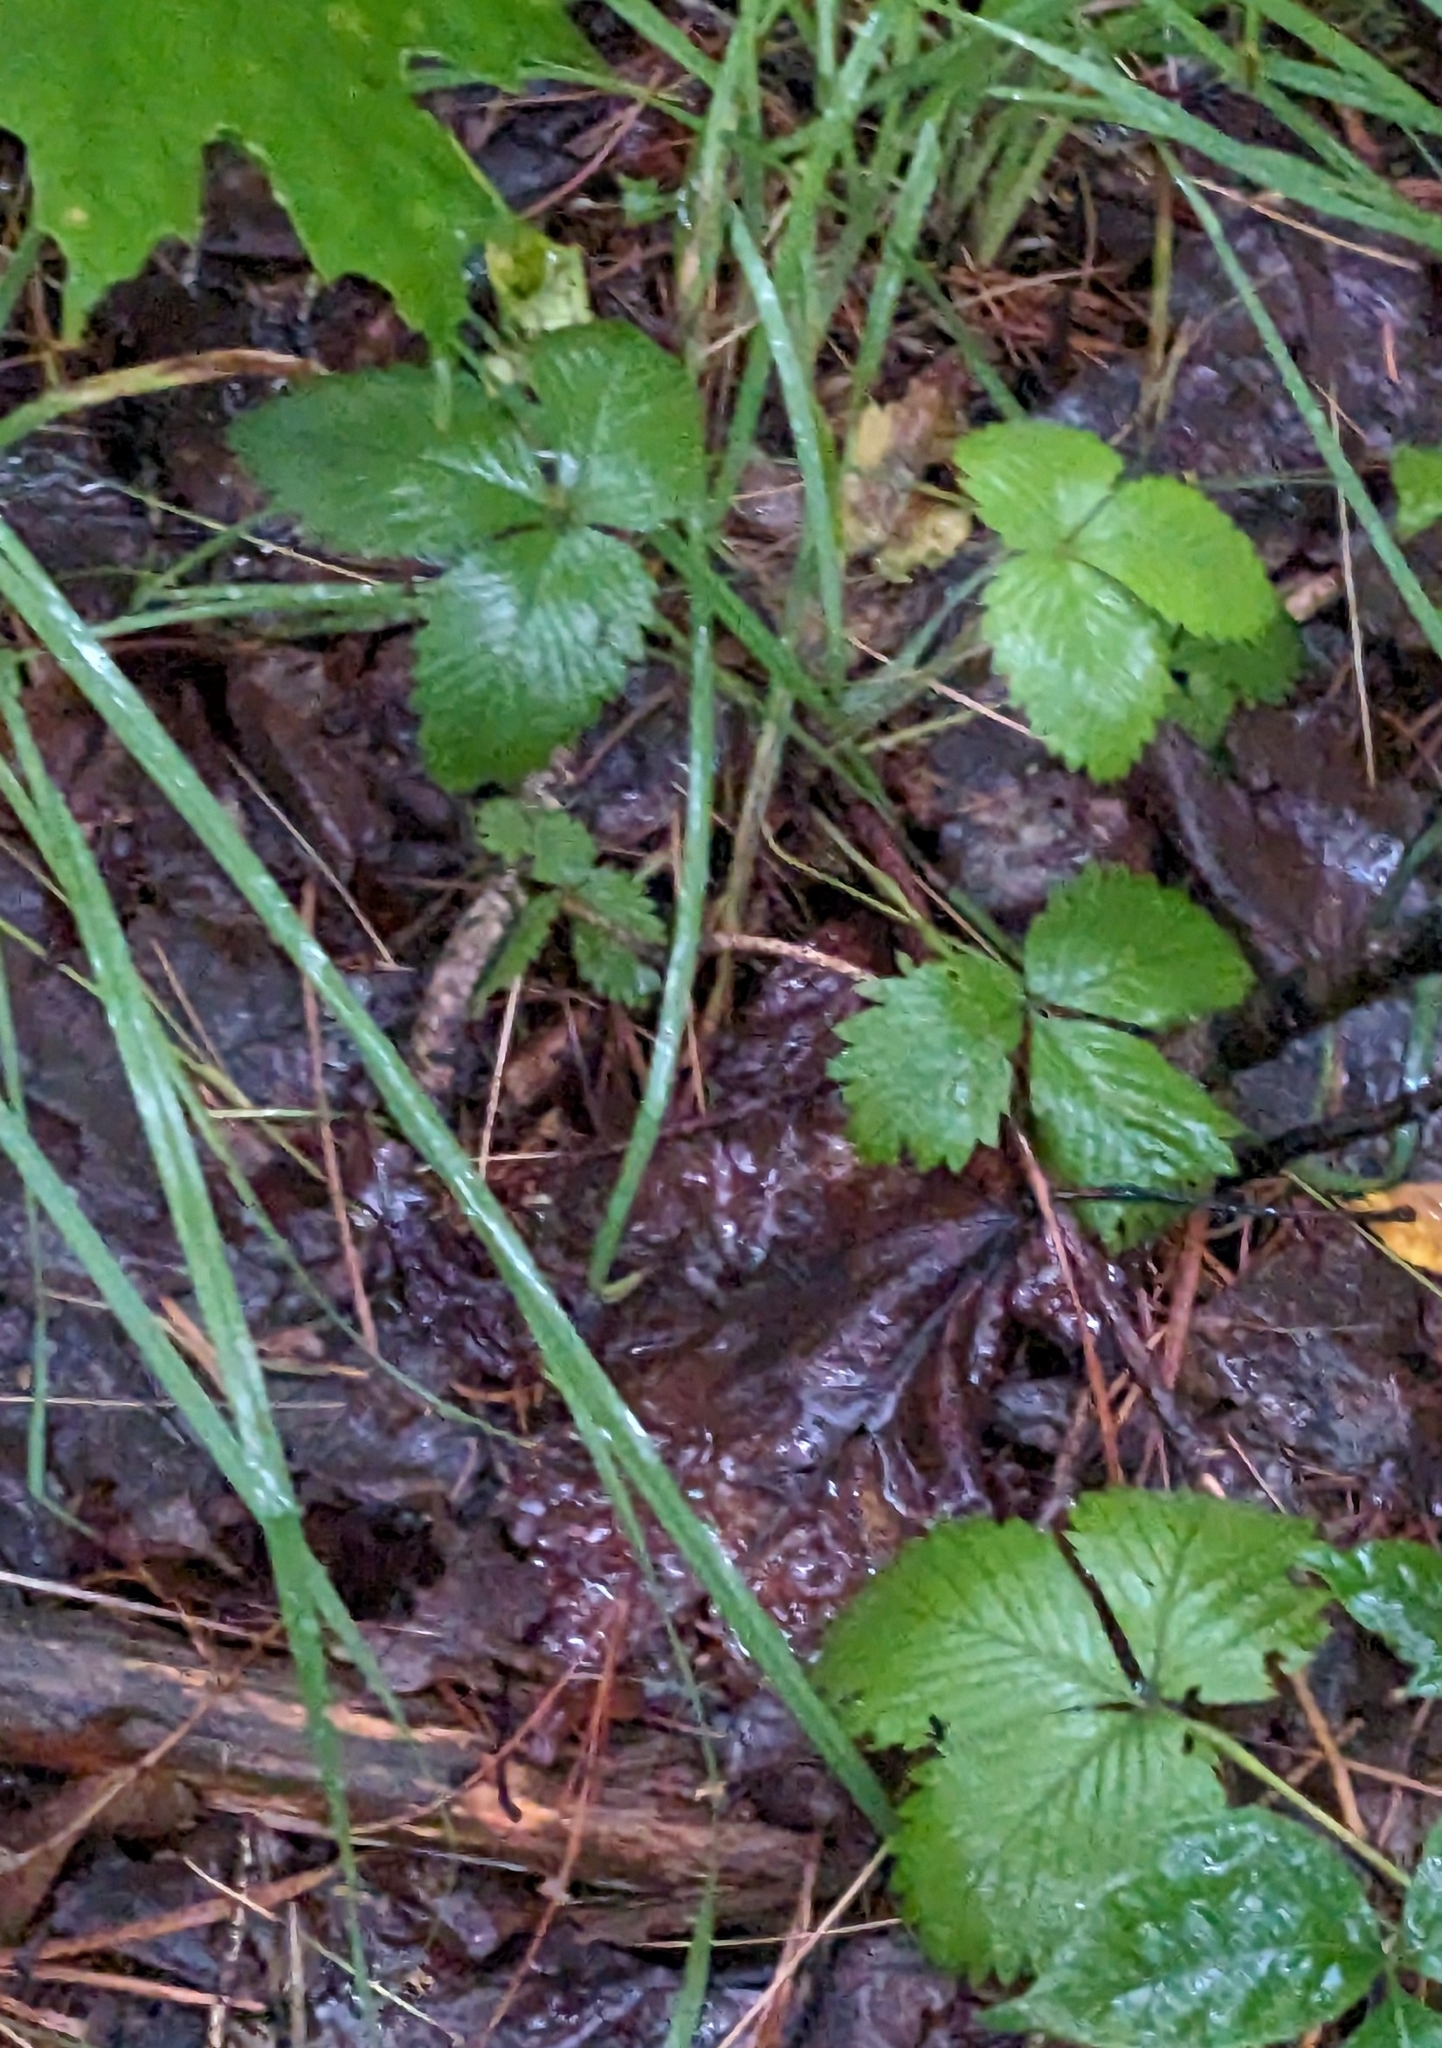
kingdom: Plantae
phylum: Tracheophyta
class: Magnoliopsida
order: Rosales
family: Rosaceae
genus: Fragaria
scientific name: Fragaria virginiana
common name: Thickleaved wild strawberry
